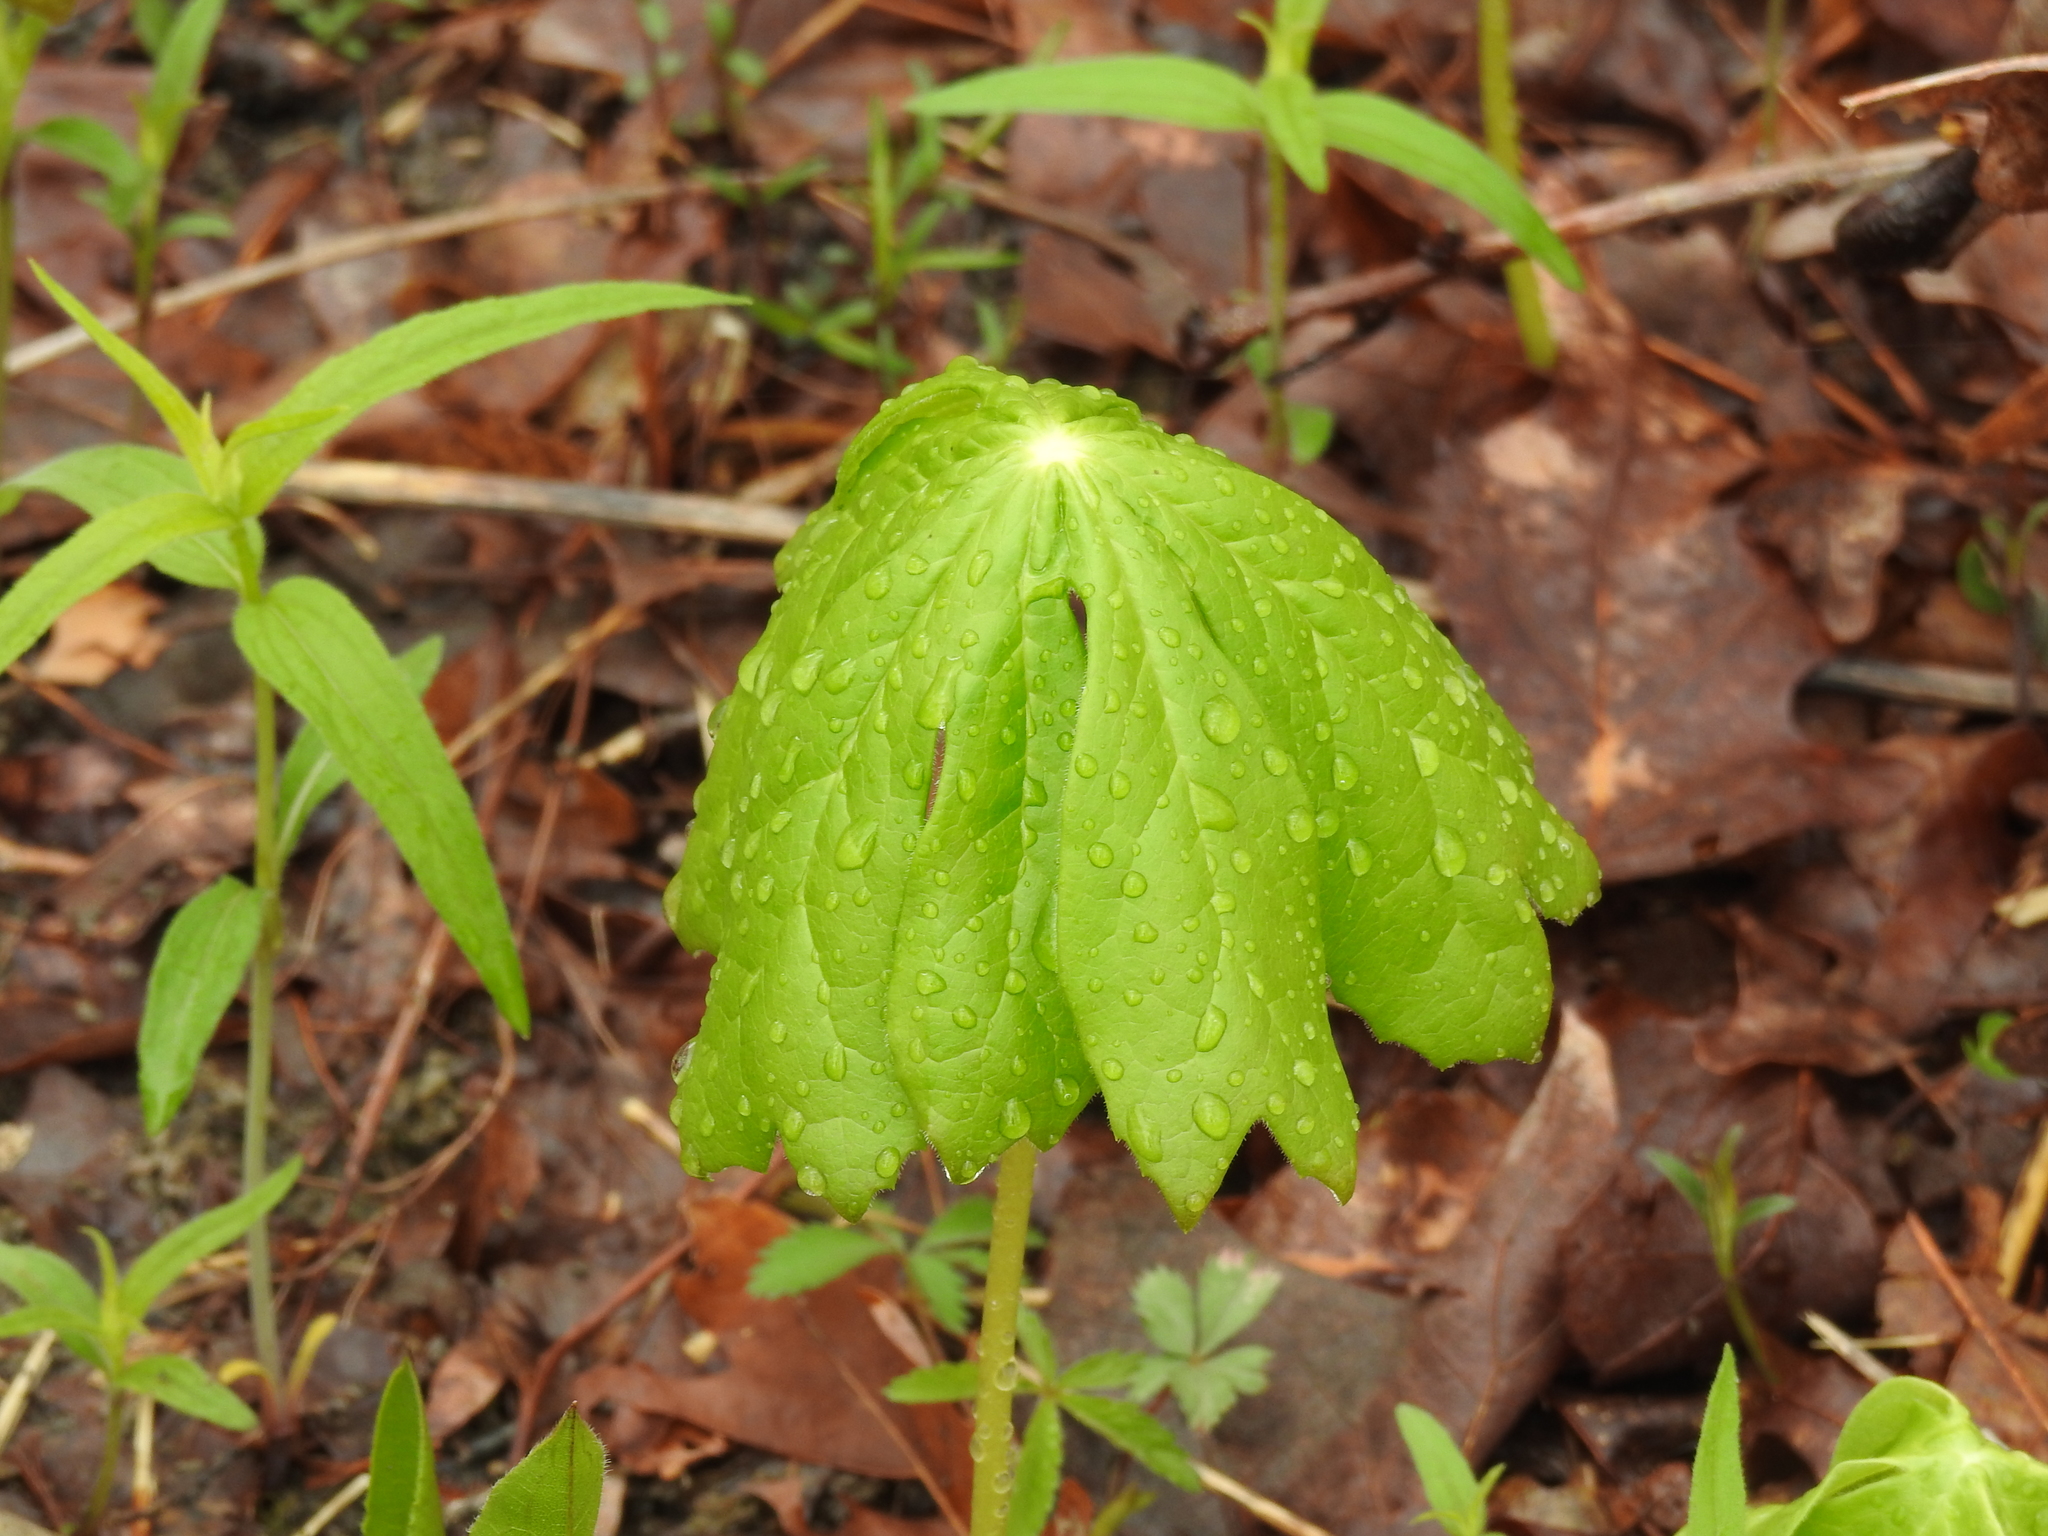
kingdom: Plantae
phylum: Tracheophyta
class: Magnoliopsida
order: Ranunculales
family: Berberidaceae
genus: Podophyllum
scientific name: Podophyllum peltatum
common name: Wild mandrake
